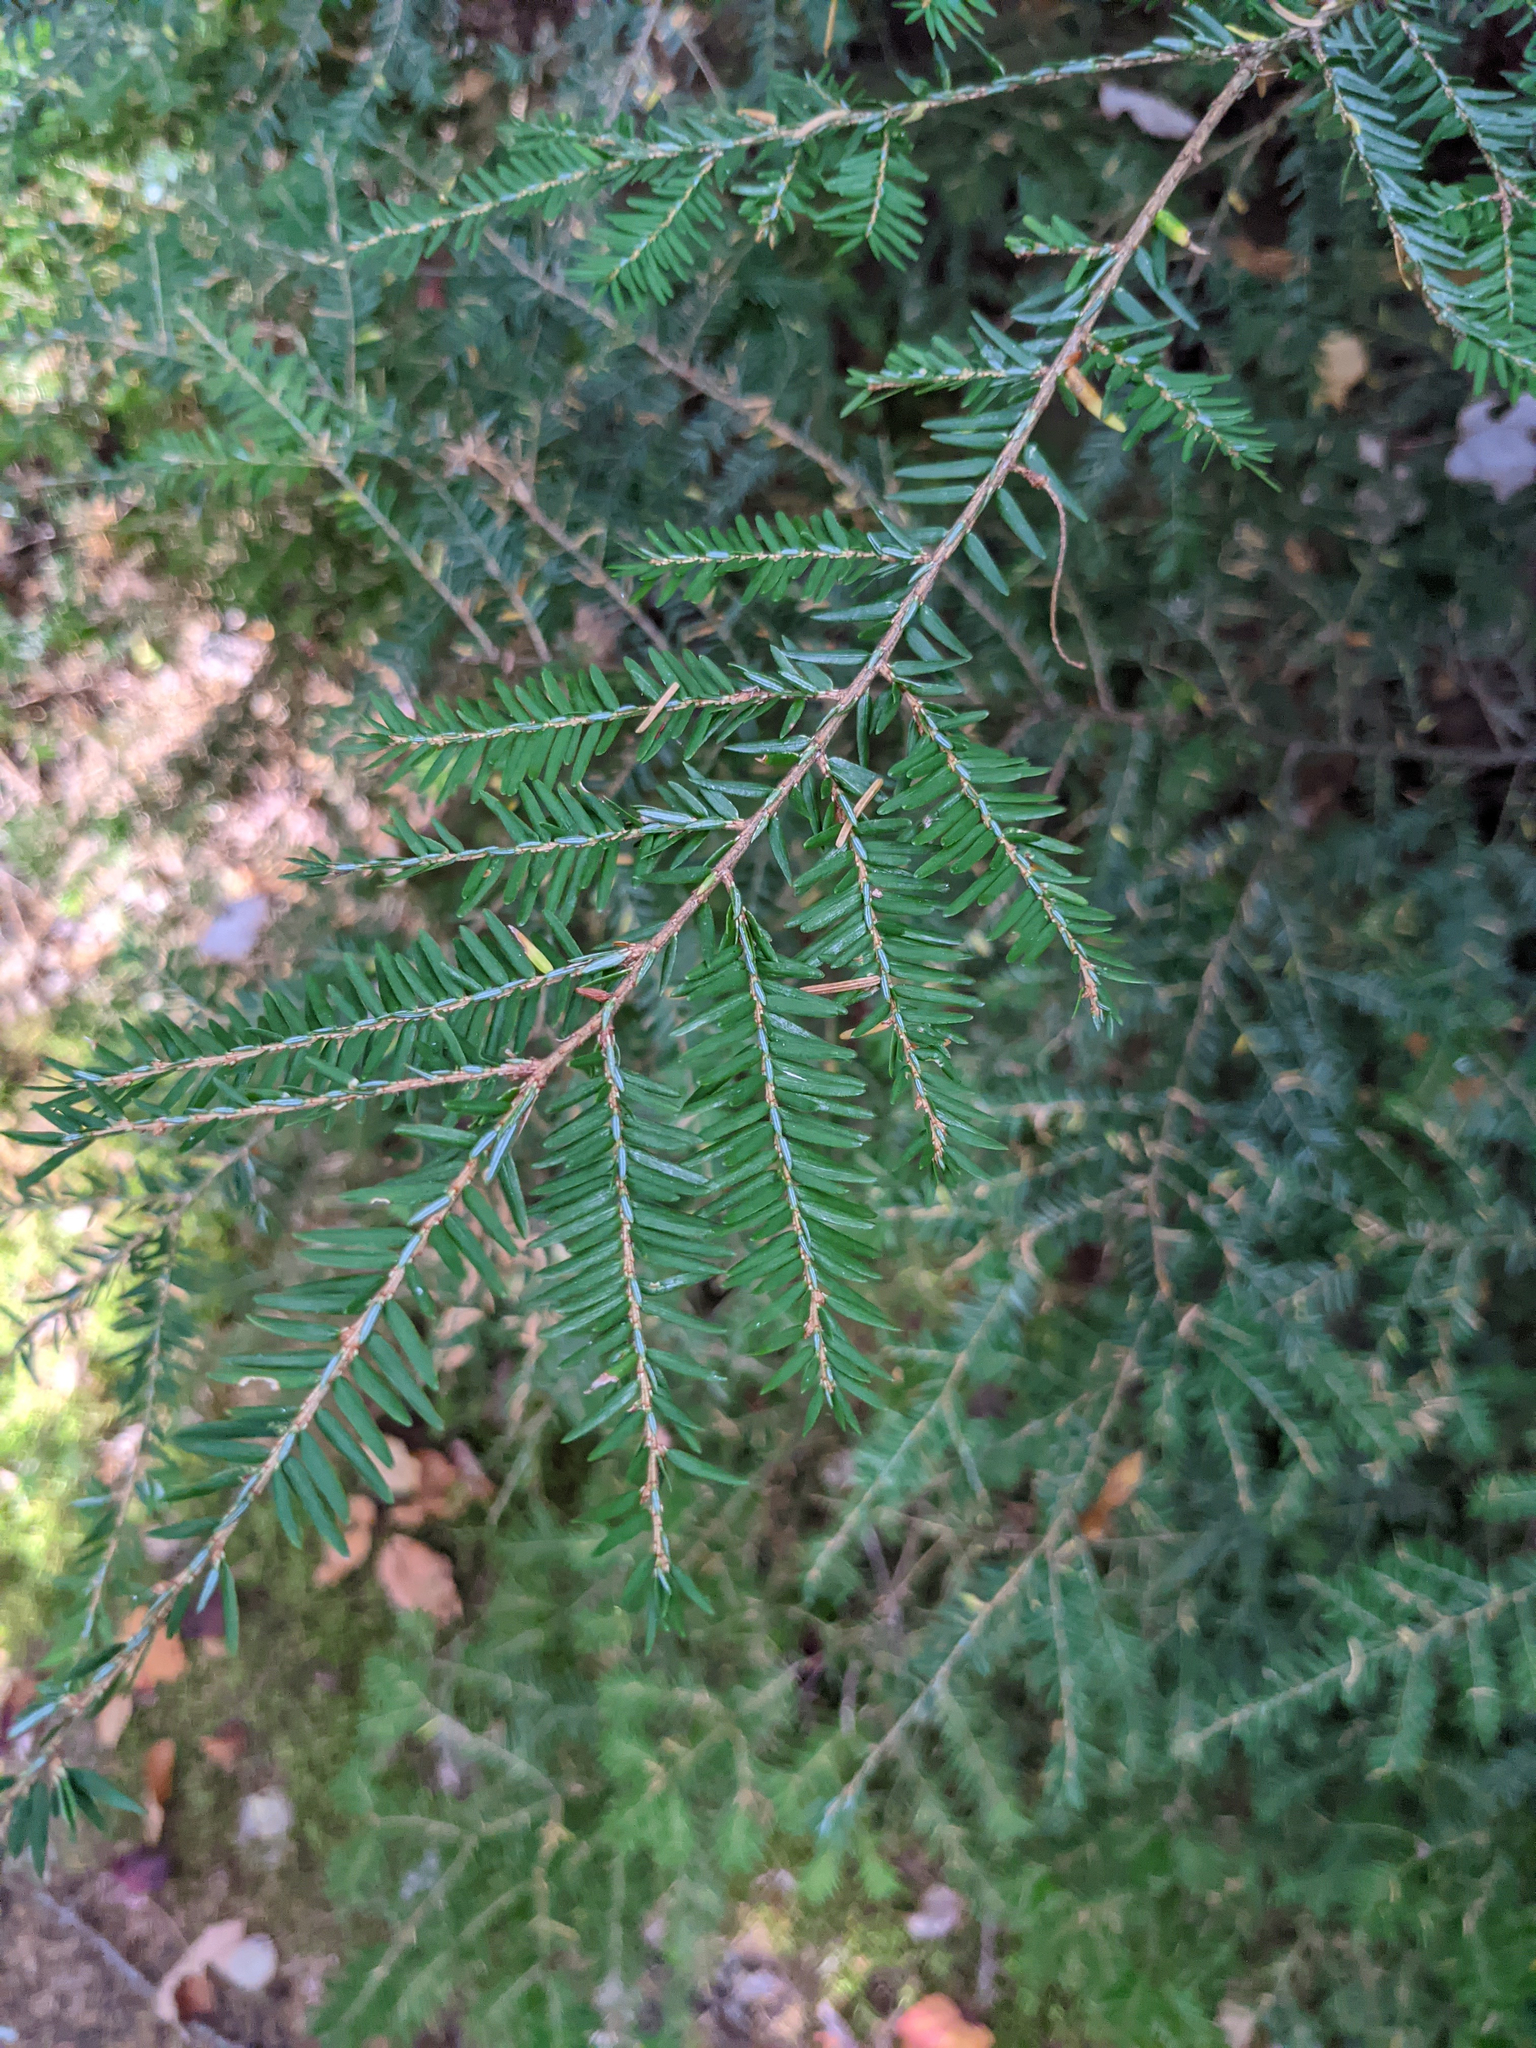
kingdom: Plantae
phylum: Tracheophyta
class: Pinopsida
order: Pinales
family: Pinaceae
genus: Tsuga
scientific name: Tsuga canadensis
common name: Eastern hemlock
